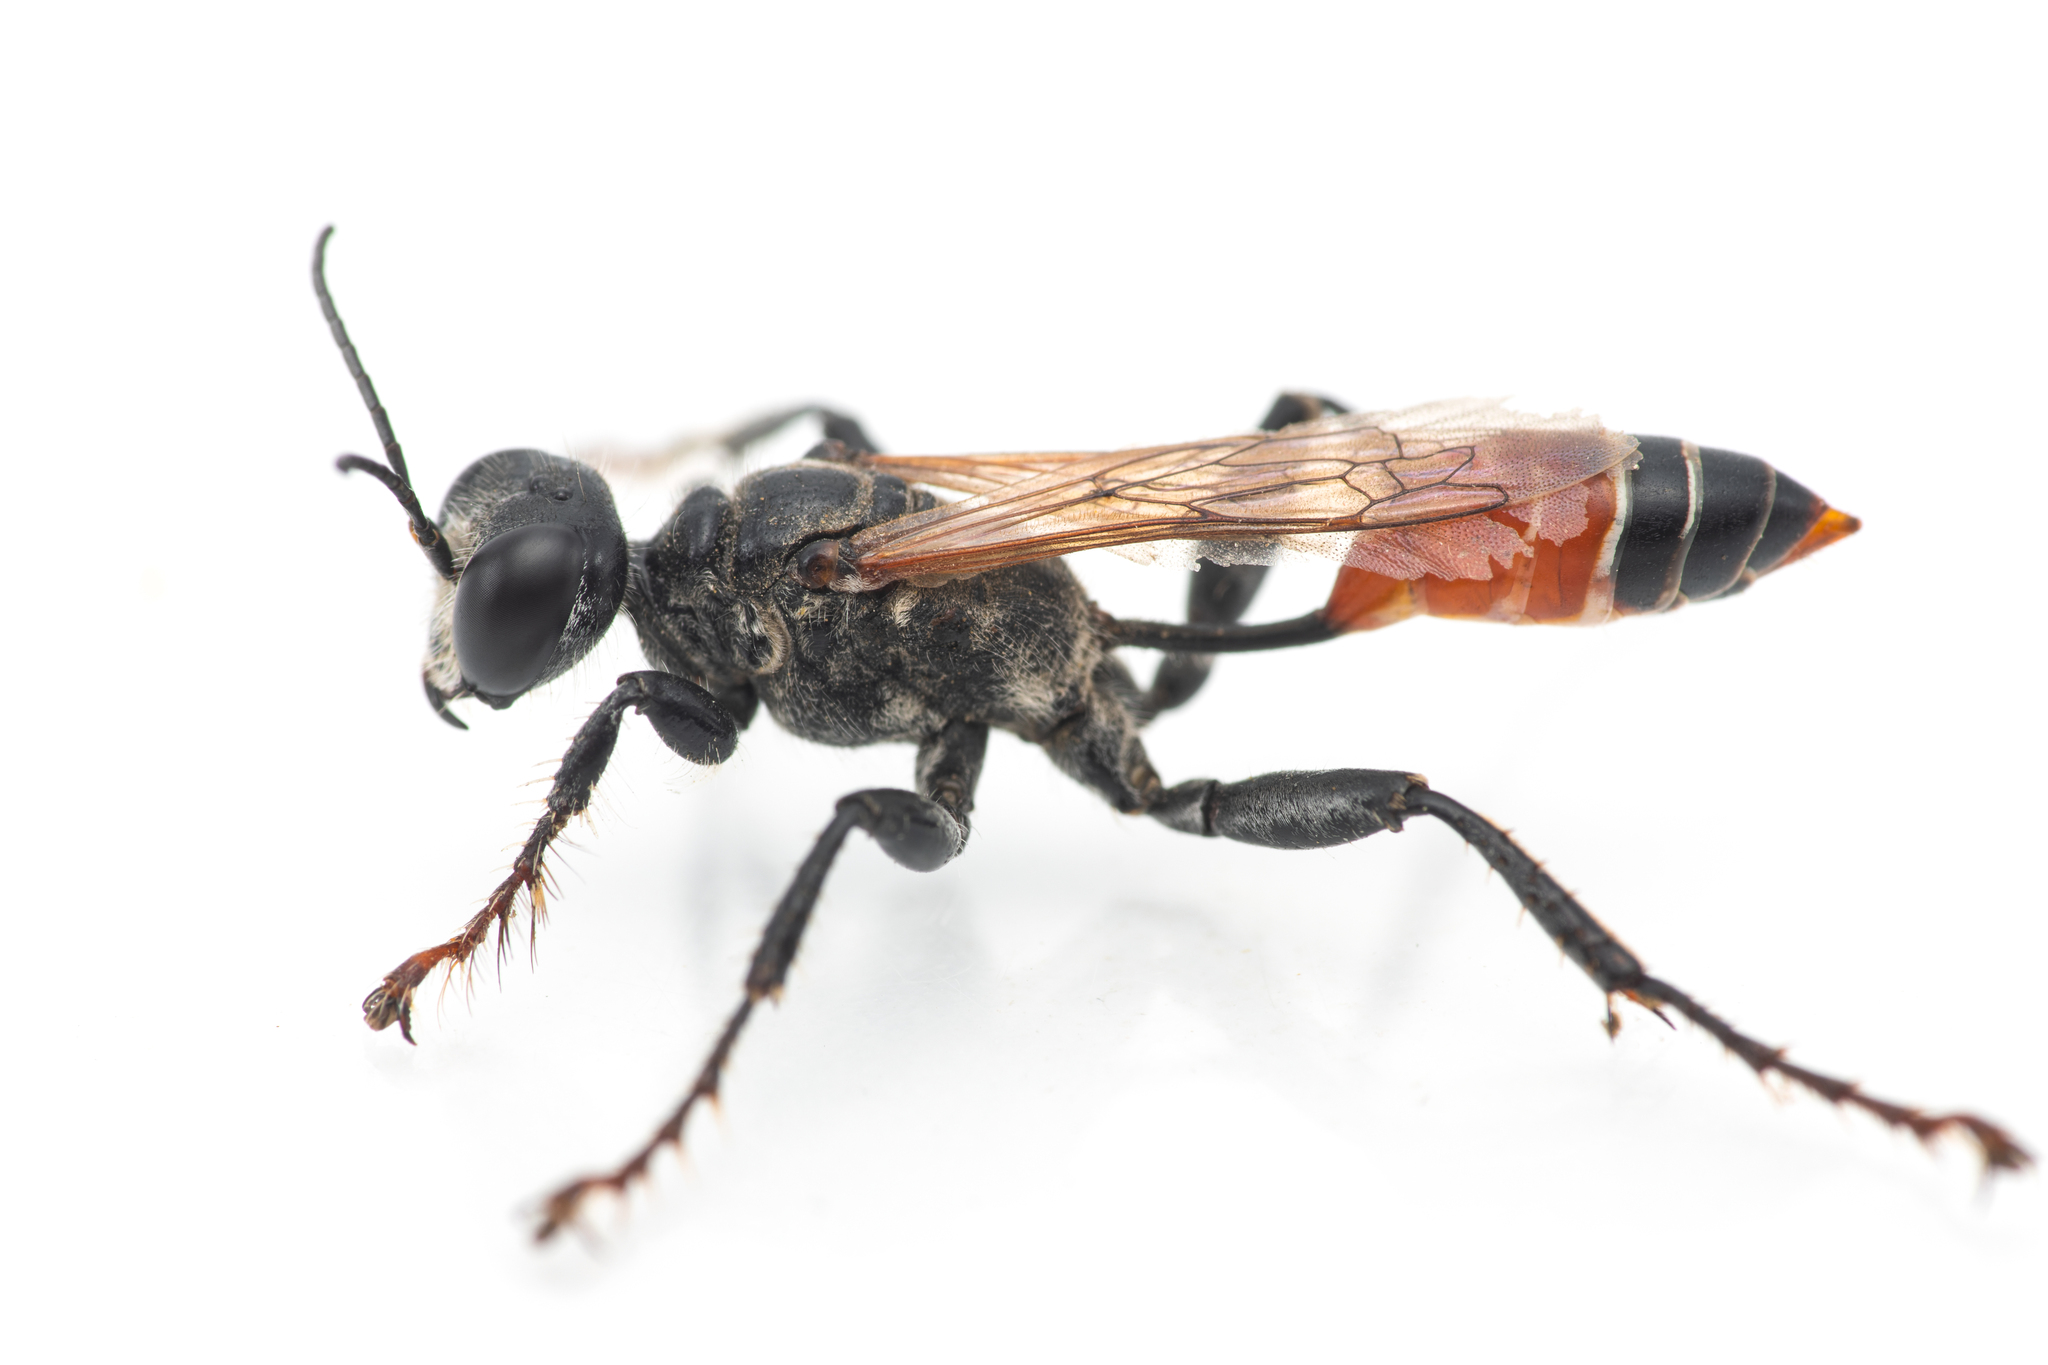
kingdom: Animalia
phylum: Arthropoda
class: Insecta
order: Hymenoptera
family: Sphecidae
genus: Prionyx
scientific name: Prionyx kirbii
